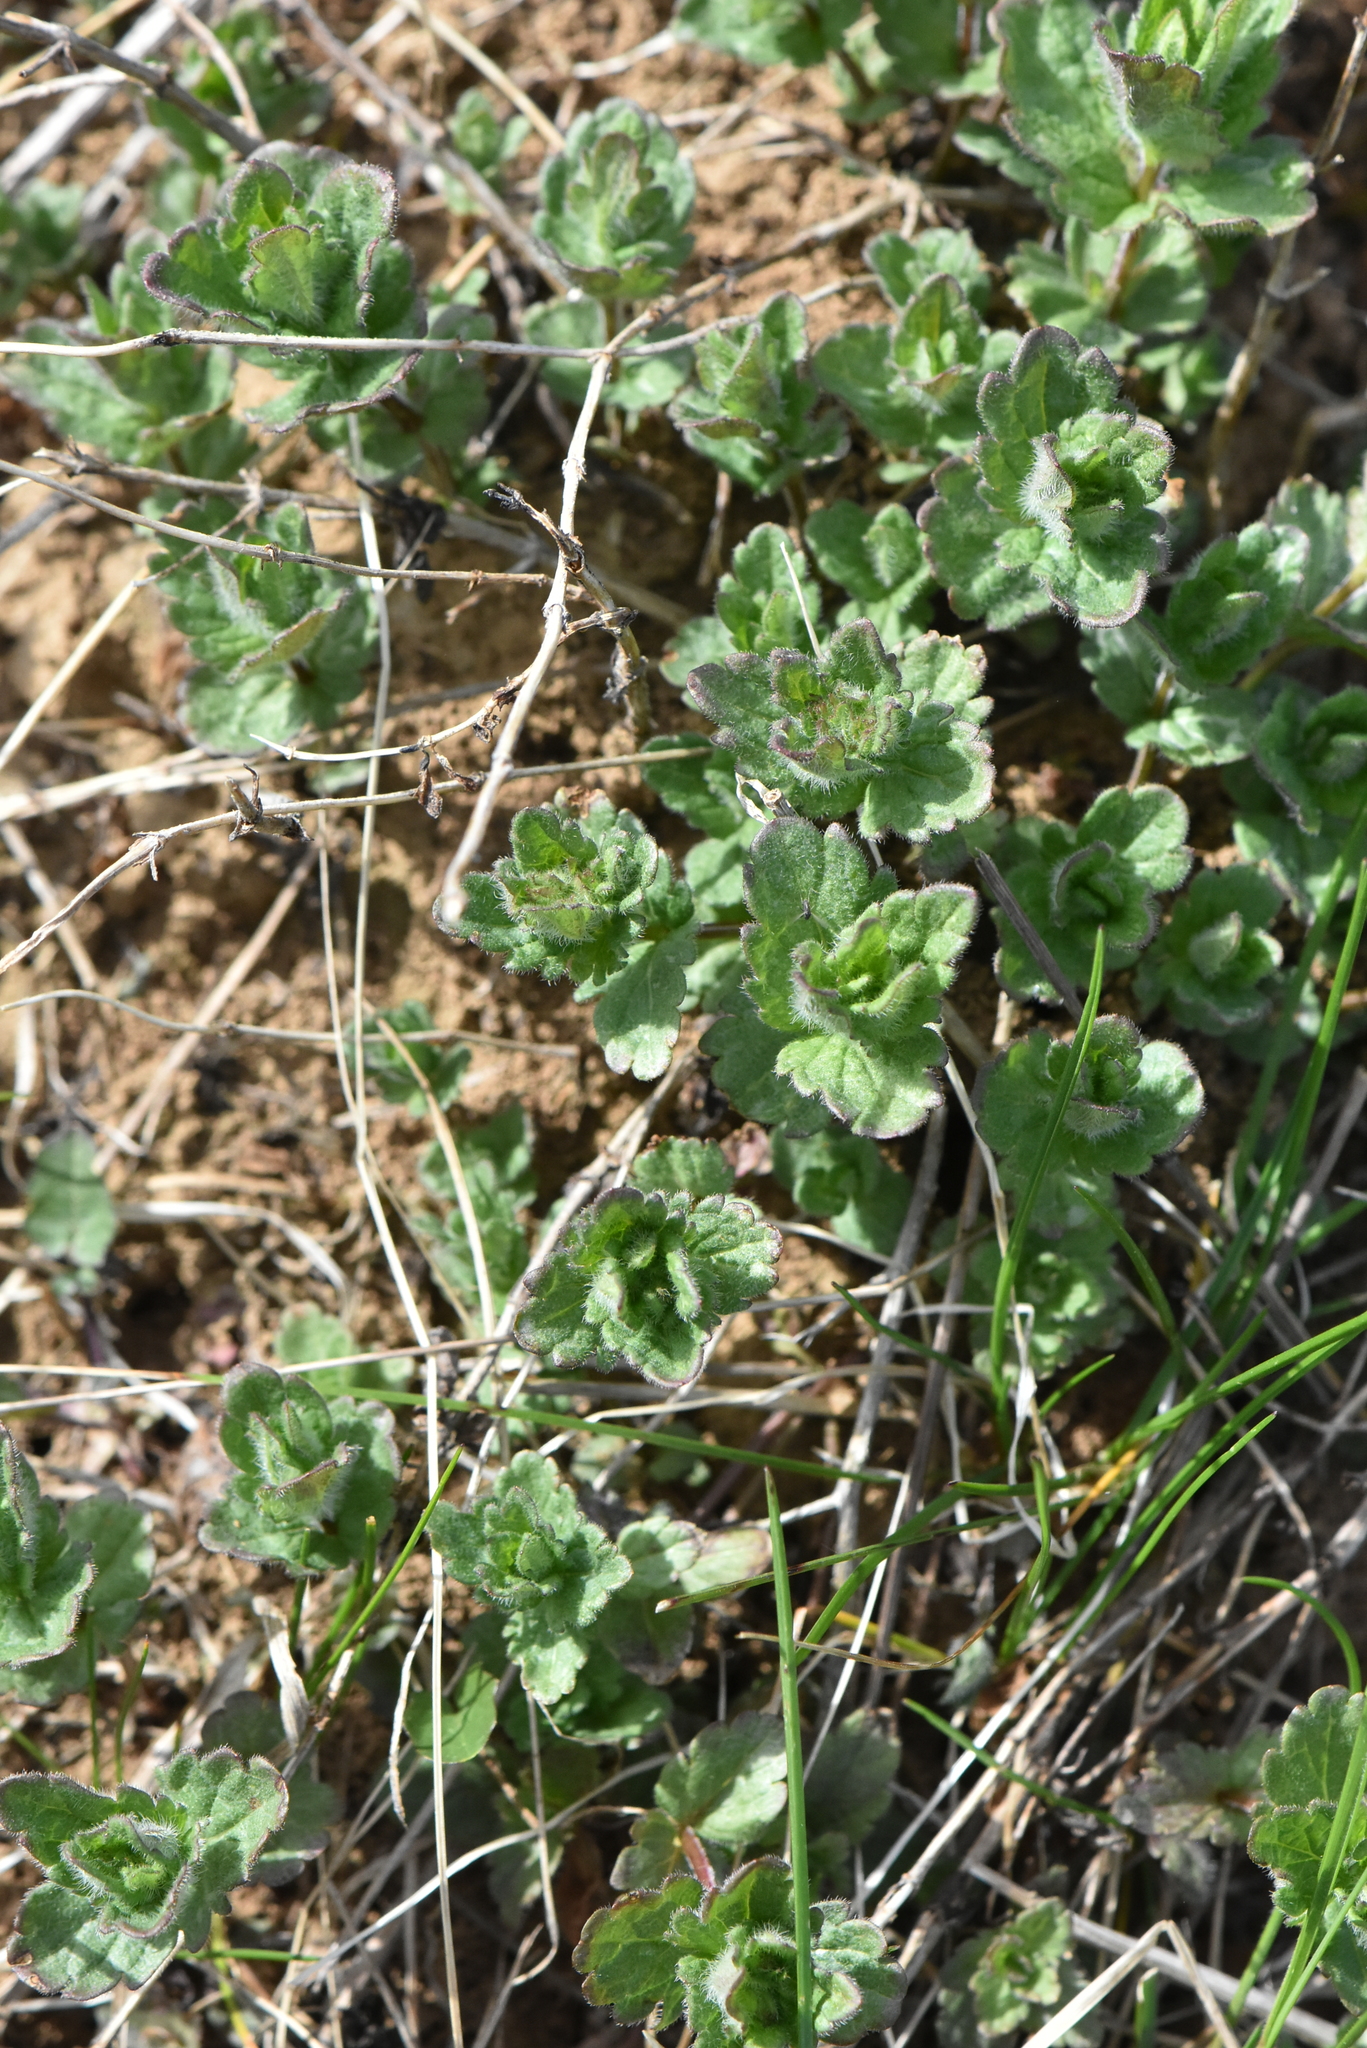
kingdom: Plantae
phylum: Tracheophyta
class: Magnoliopsida
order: Lamiales
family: Plantaginaceae
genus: Veronica
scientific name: Veronica chamaedrys
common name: Germander speedwell
